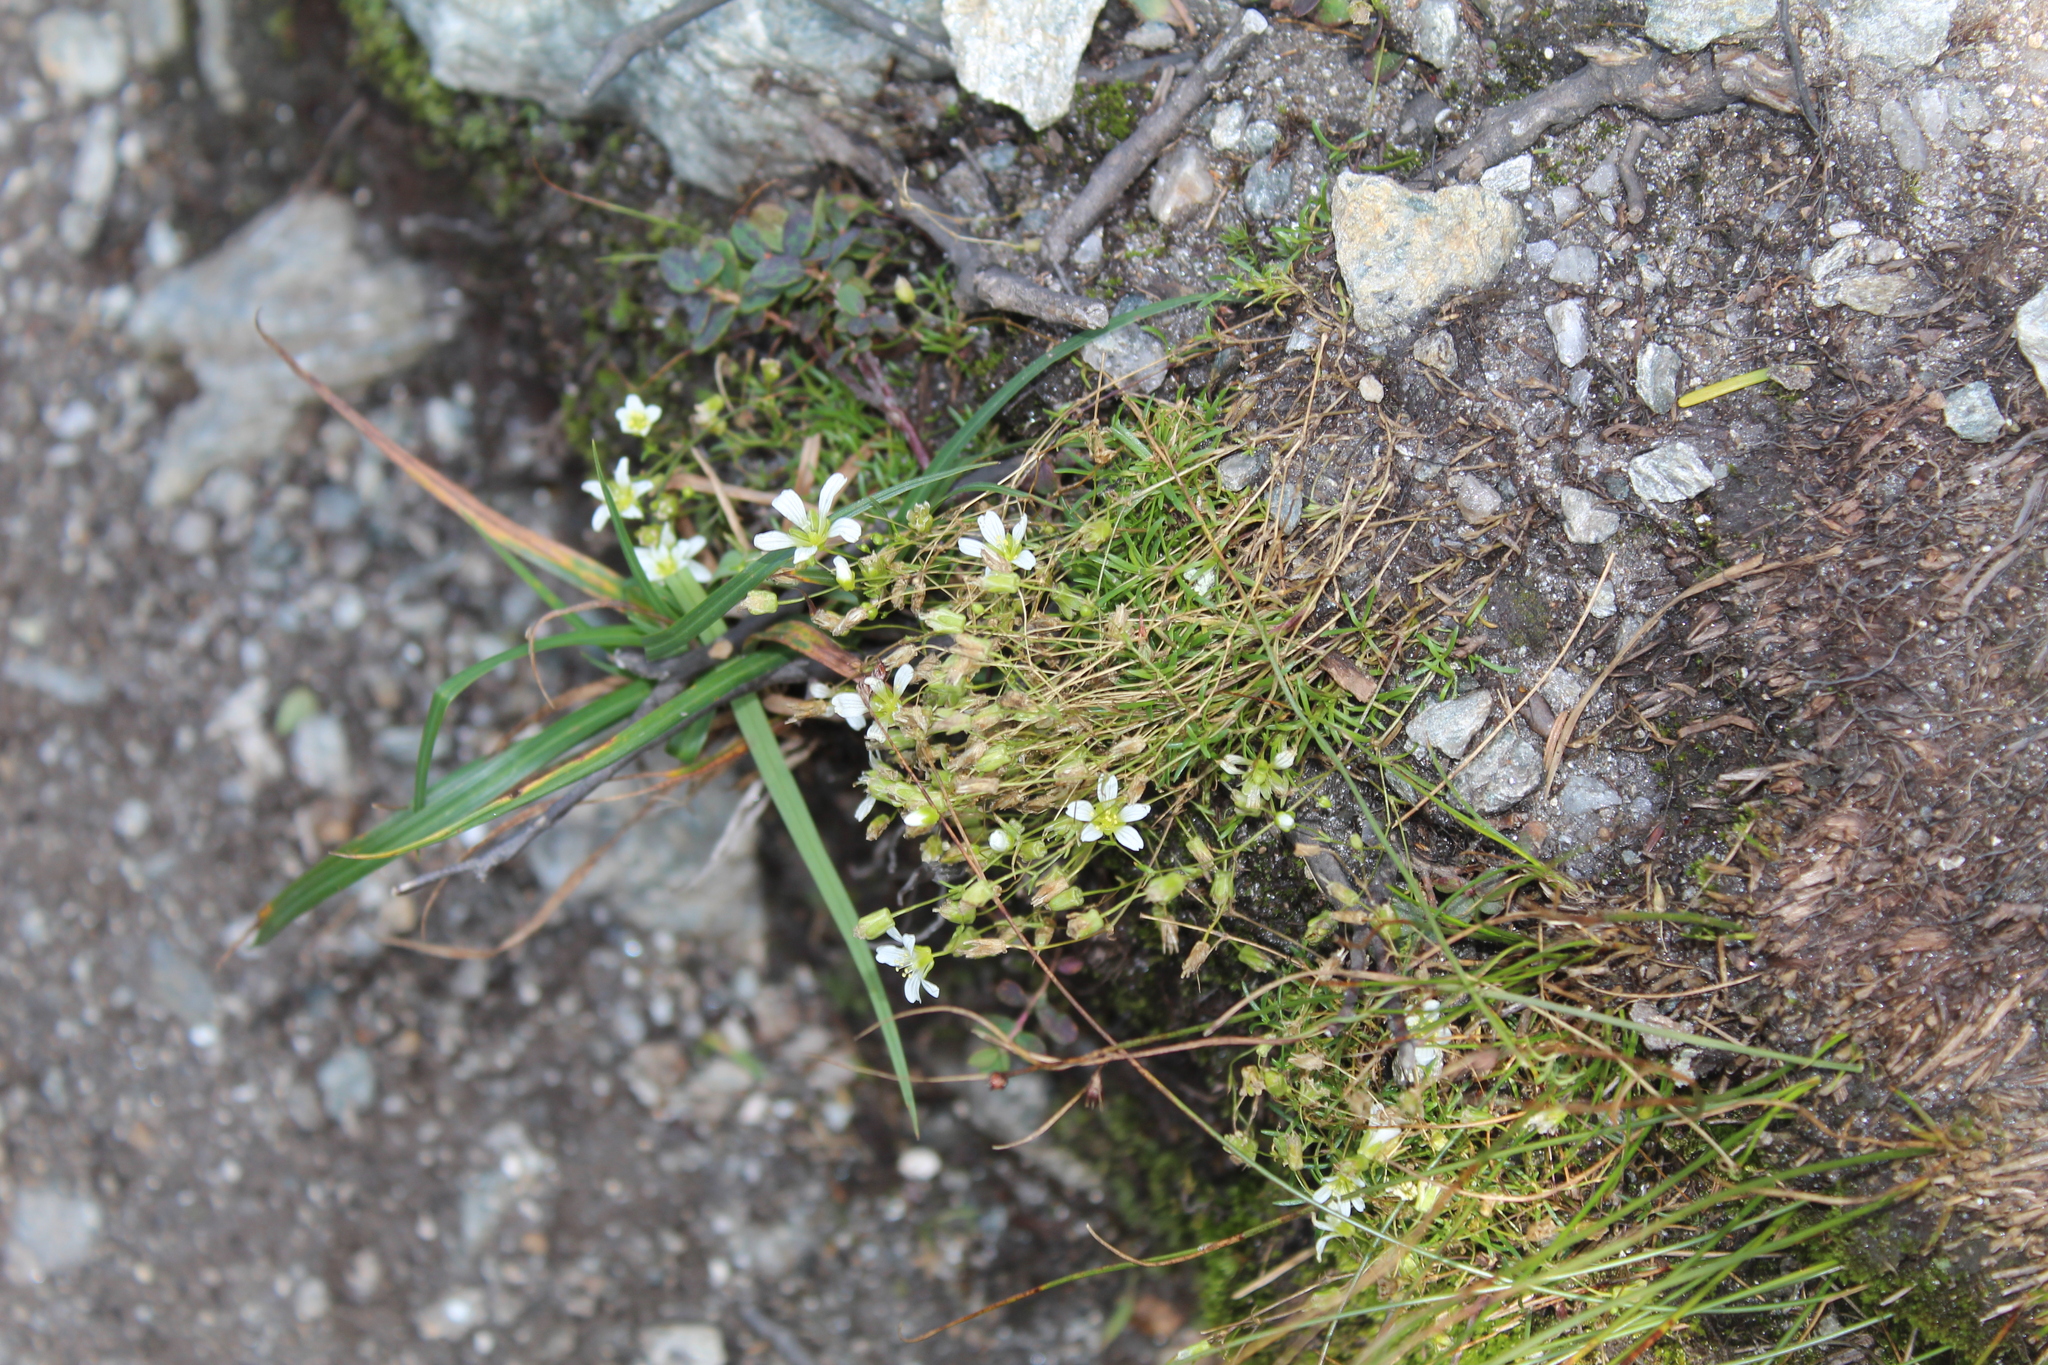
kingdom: Plantae
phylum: Tracheophyta
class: Magnoliopsida
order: Caryophyllales
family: Caryophyllaceae
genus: Geocarpon
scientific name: Geocarpon groenlandicum
